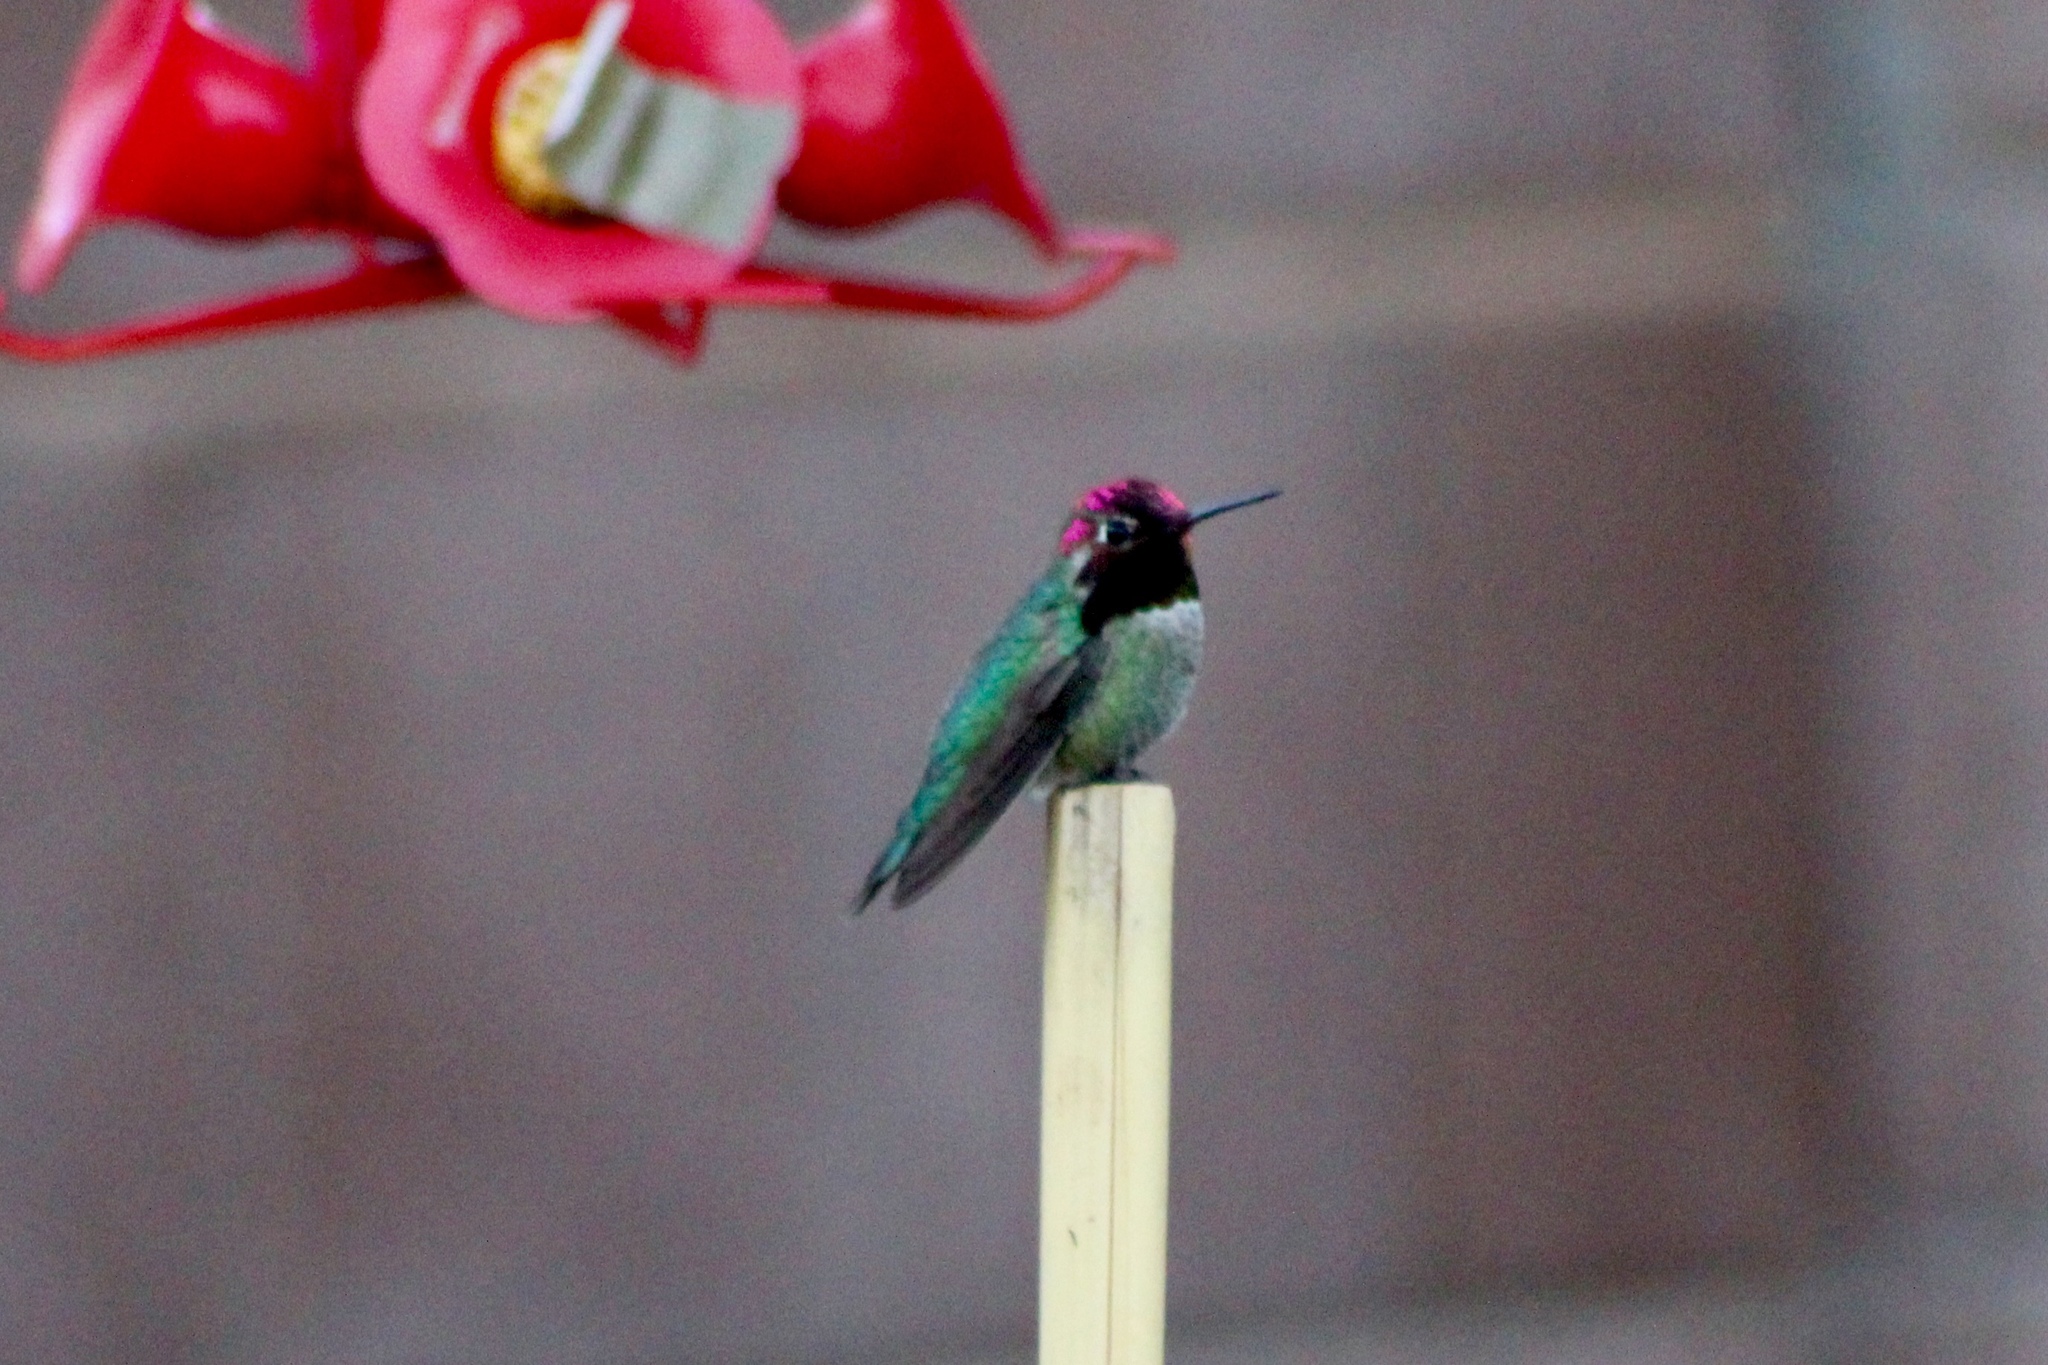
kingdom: Animalia
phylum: Chordata
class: Aves
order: Apodiformes
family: Trochilidae
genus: Calypte
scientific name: Calypte anna
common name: Anna's hummingbird
